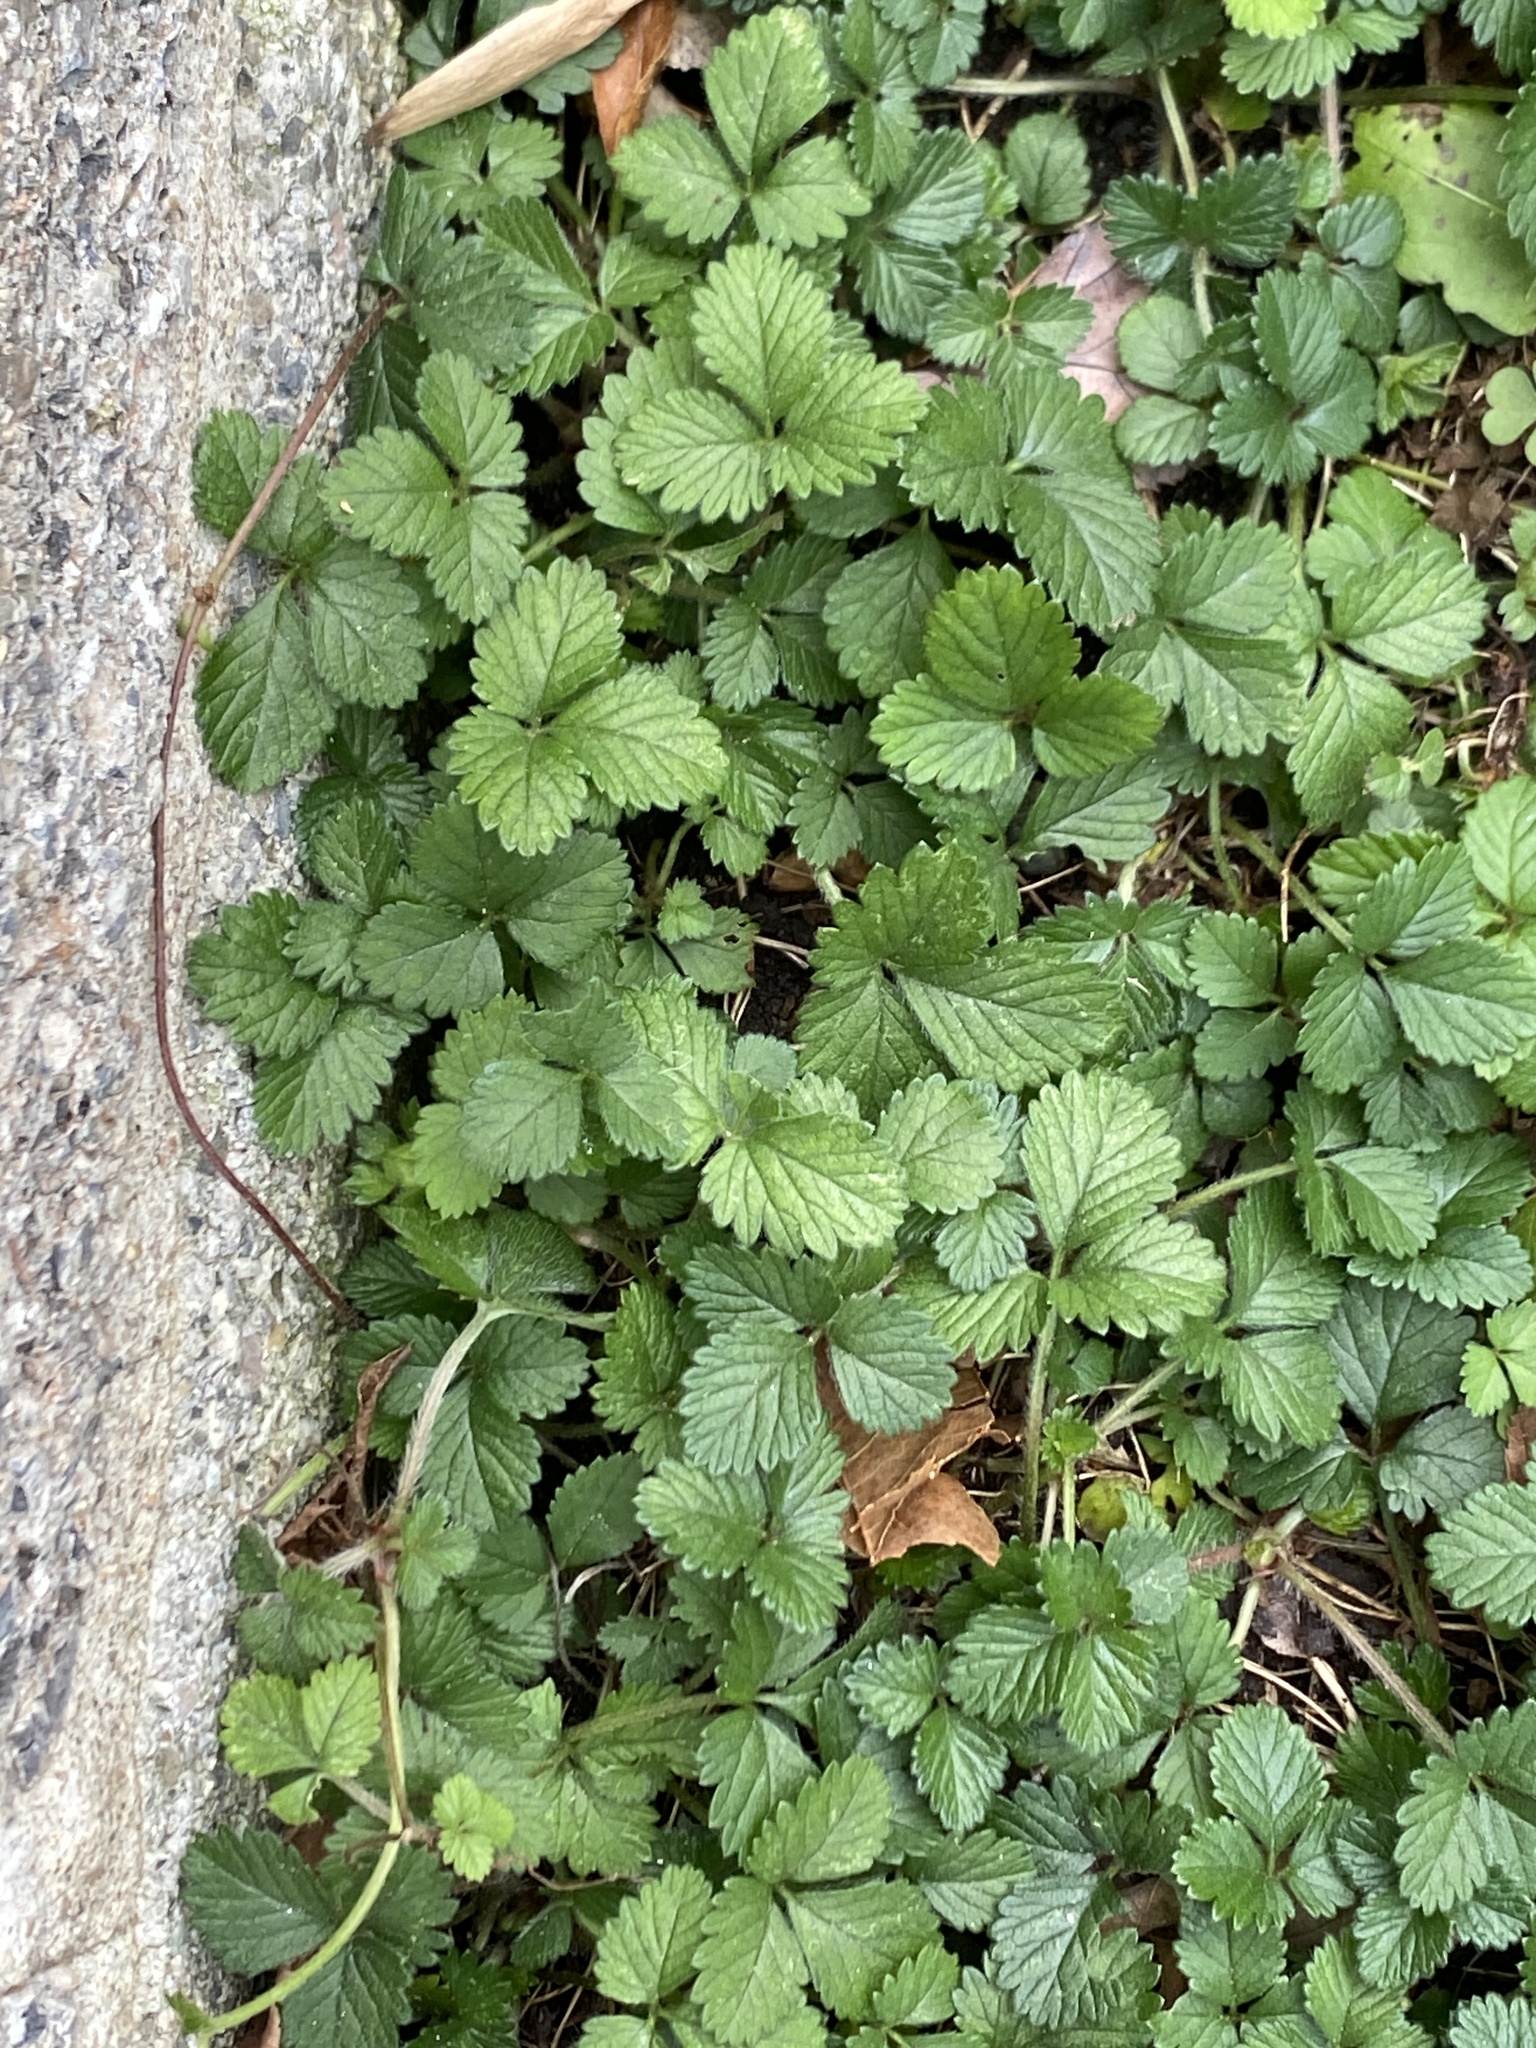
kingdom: Plantae
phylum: Tracheophyta
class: Magnoliopsida
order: Rosales
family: Rosaceae
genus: Potentilla
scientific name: Potentilla indica
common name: Yellow-flowered strawberry
